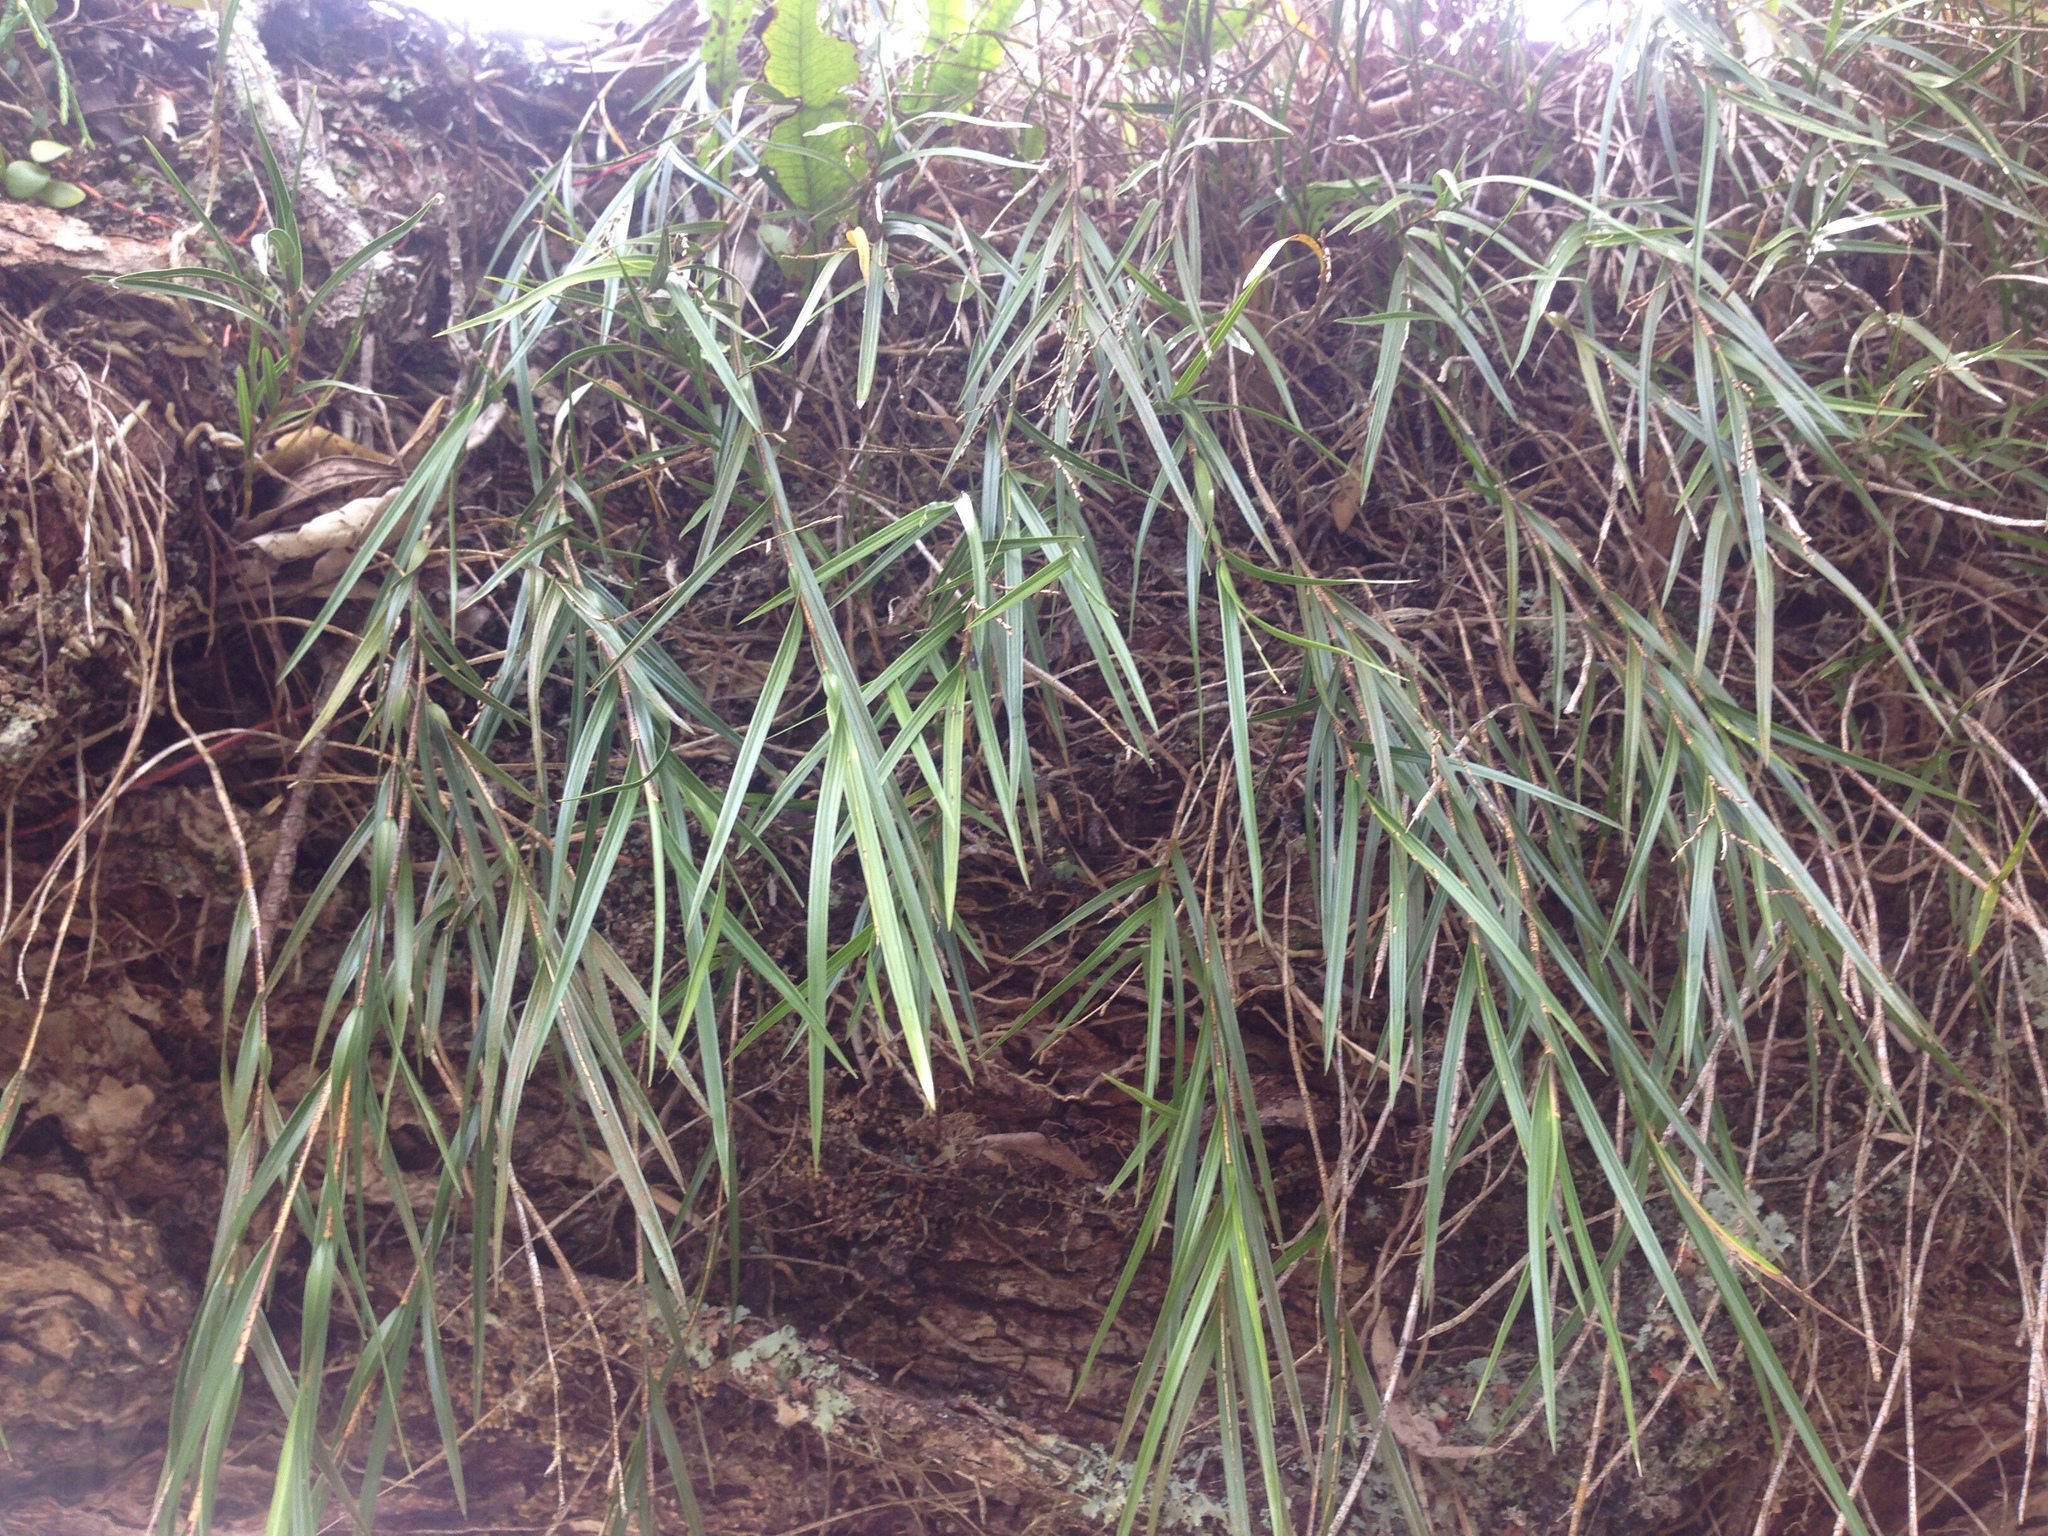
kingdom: Plantae
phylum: Tracheophyta
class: Liliopsida
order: Asparagales
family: Orchidaceae
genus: Earina
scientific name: Earina mucronata
